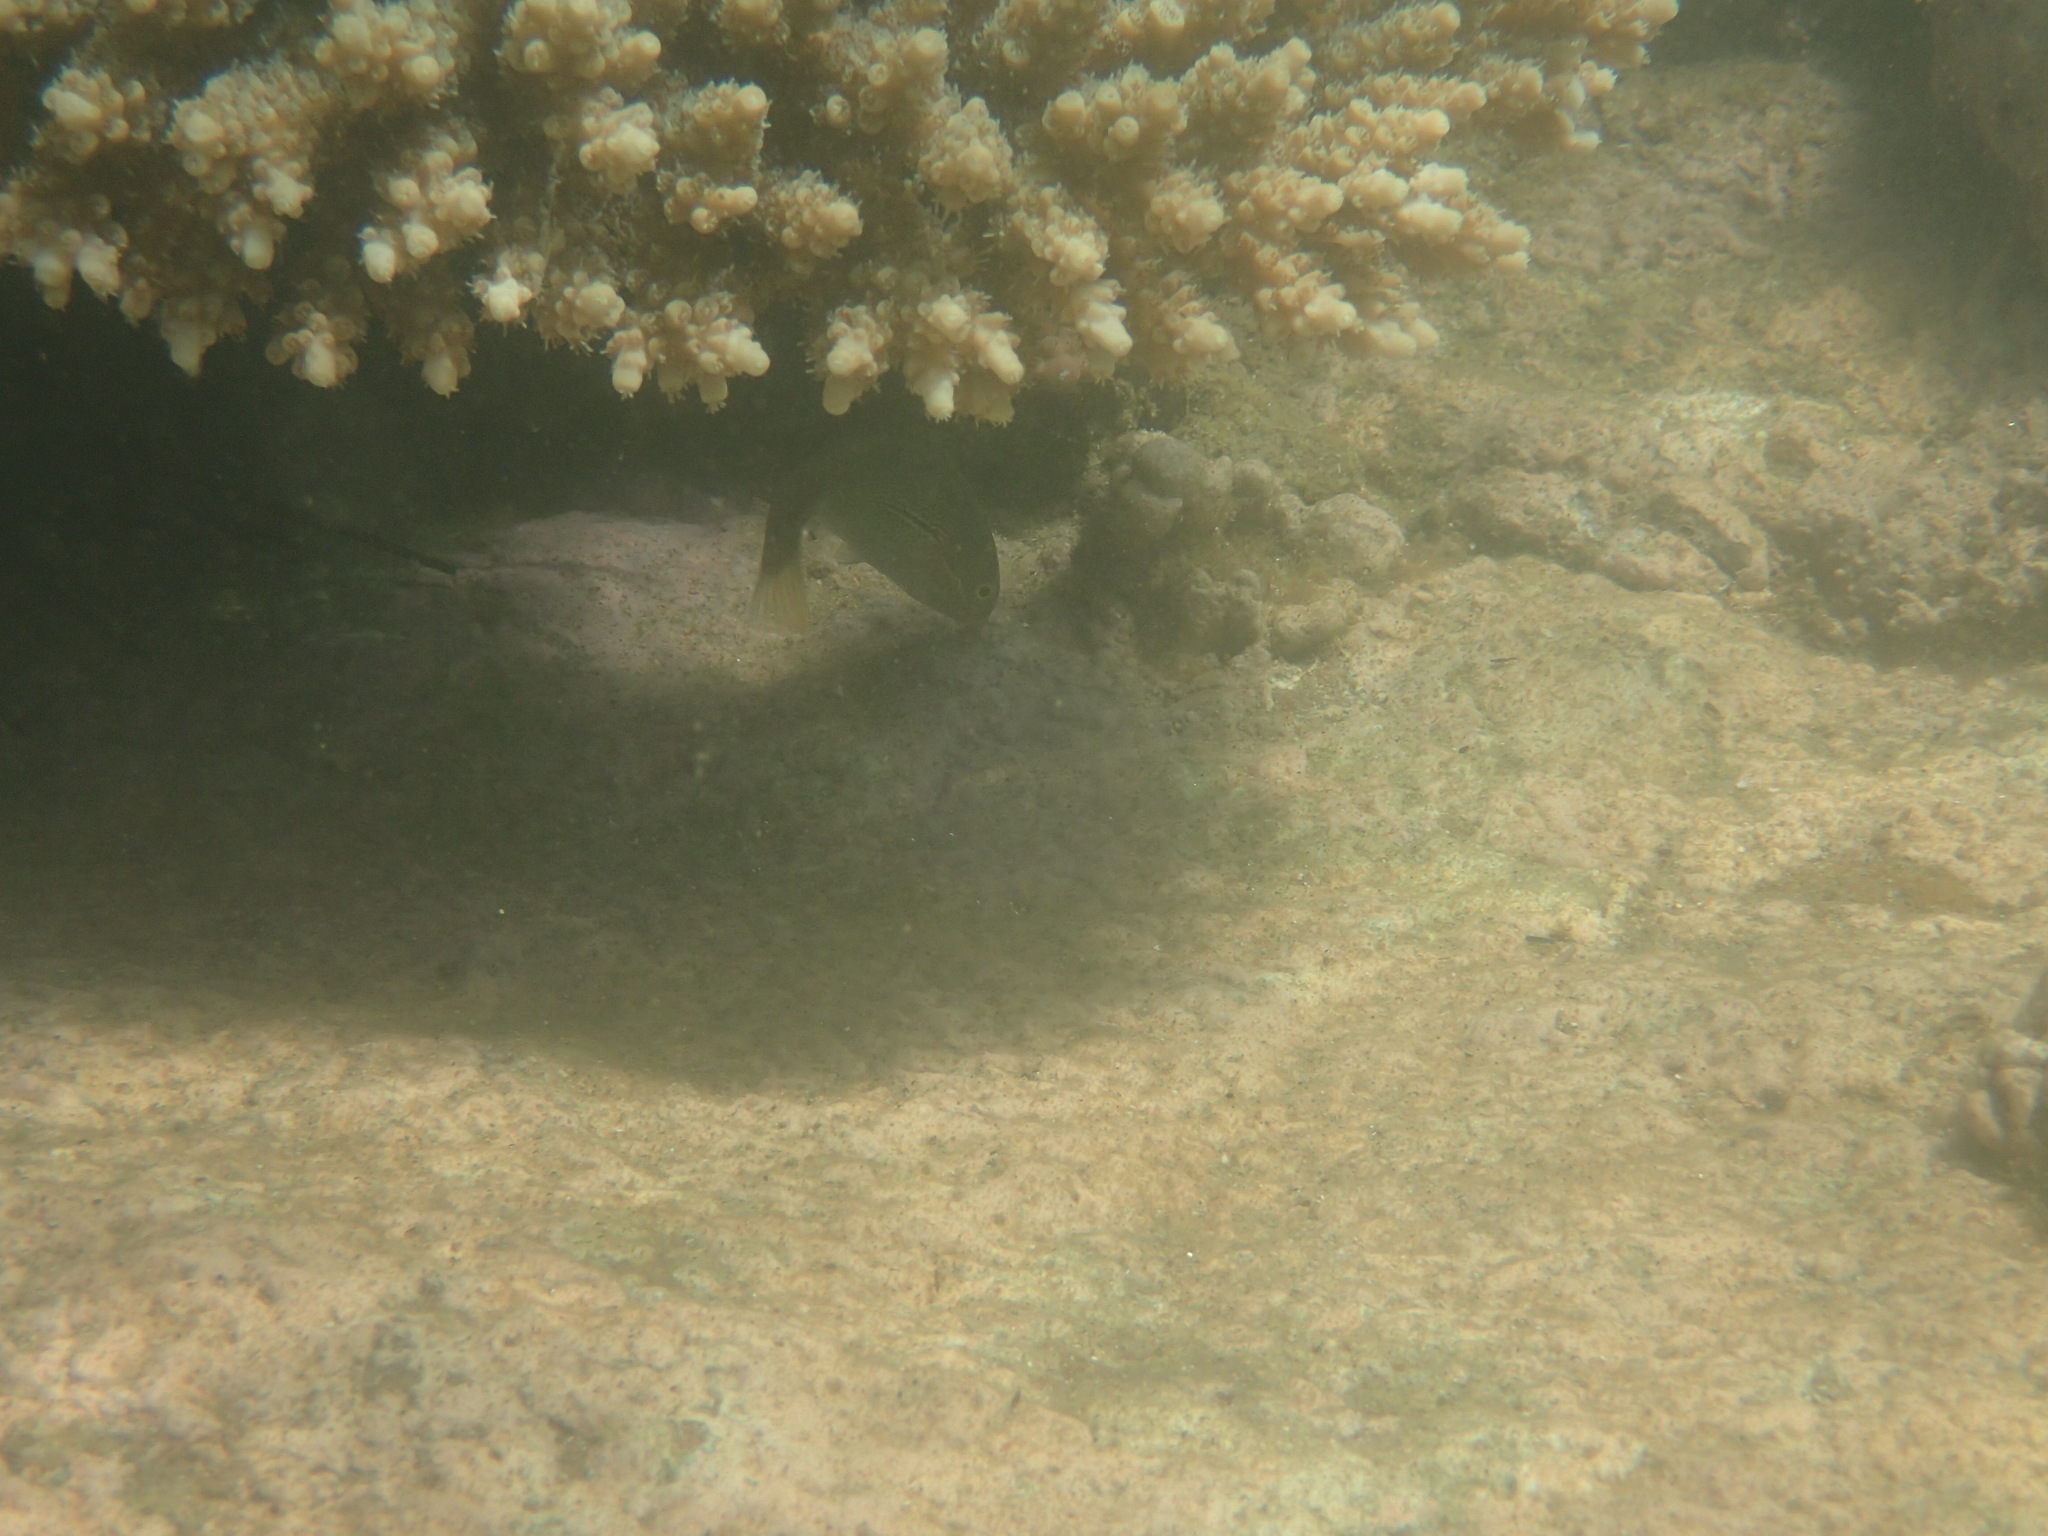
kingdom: Animalia
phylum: Chordata
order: Perciformes
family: Labridae
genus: Stethojulis
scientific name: Stethojulis interrupta
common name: Cutribbon wrasse
